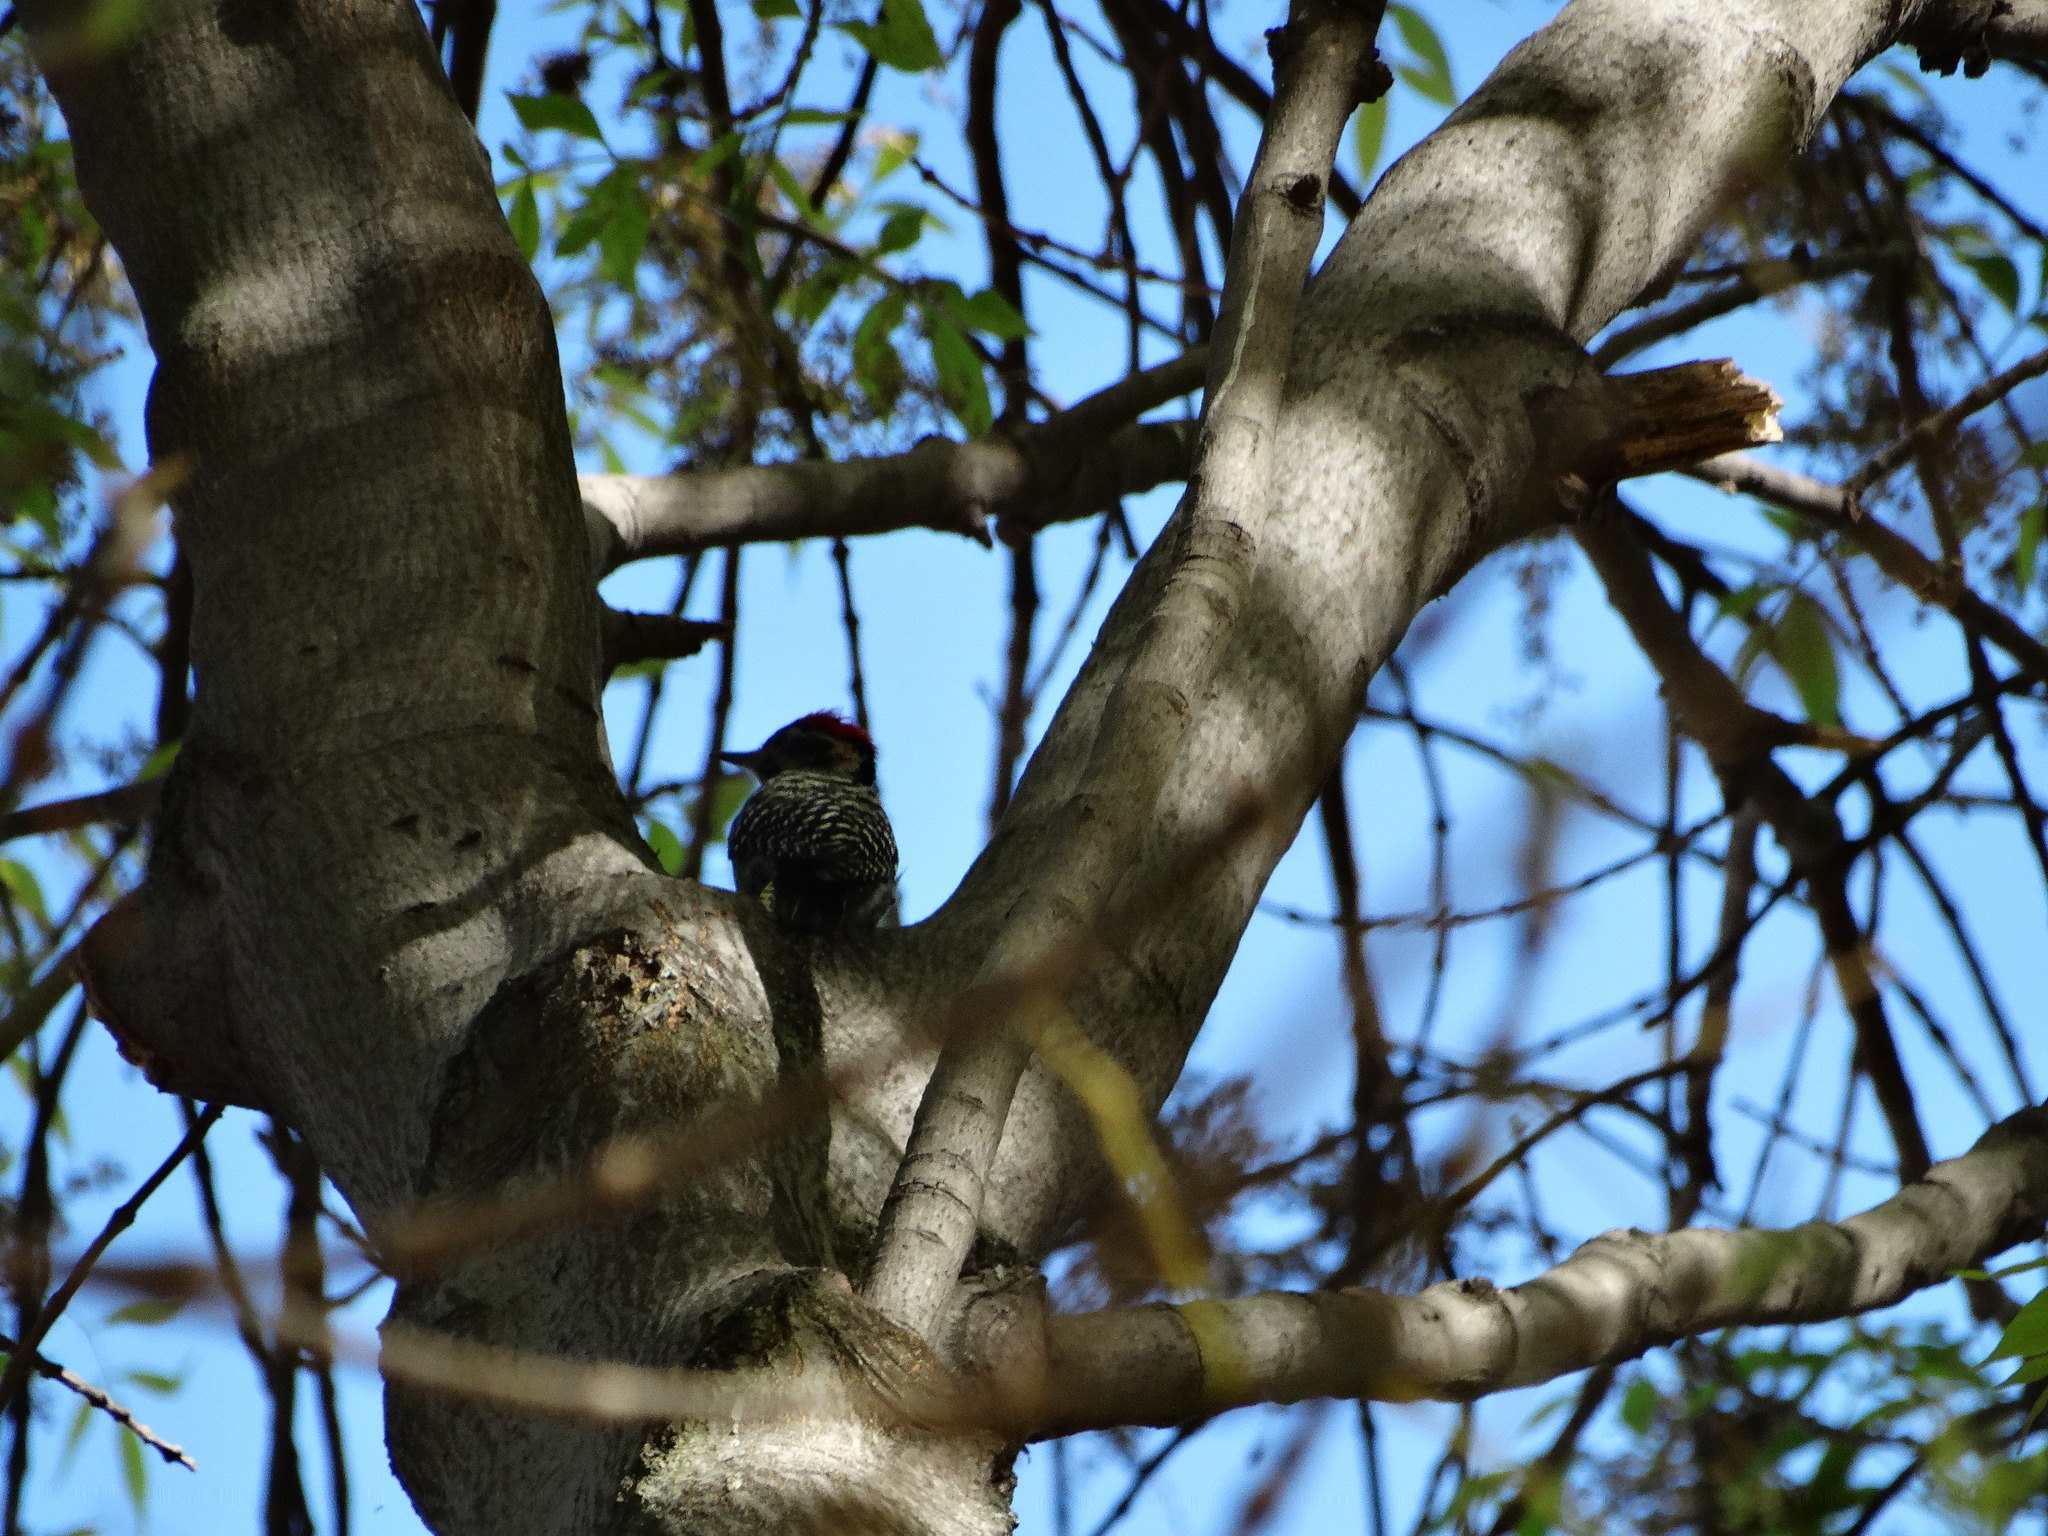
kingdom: Animalia
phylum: Chordata
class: Aves
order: Piciformes
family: Picidae
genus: Dryobates
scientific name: Dryobates scalaris
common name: Ladder-backed woodpecker
